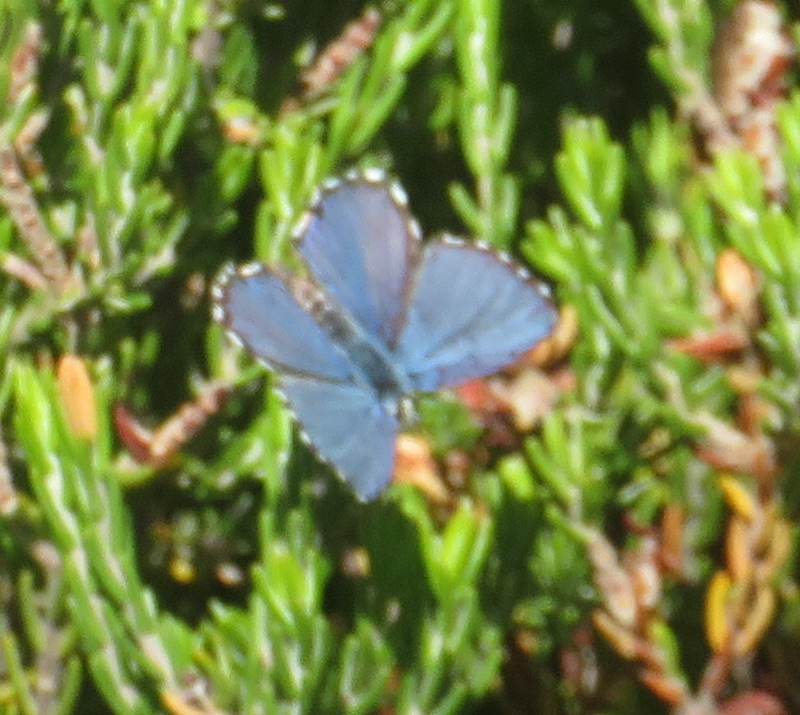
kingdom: Animalia
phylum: Arthropoda
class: Insecta
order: Lepidoptera
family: Lycaenidae
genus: Tarucus
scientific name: Tarucus thespis
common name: Vivid dotted blue
